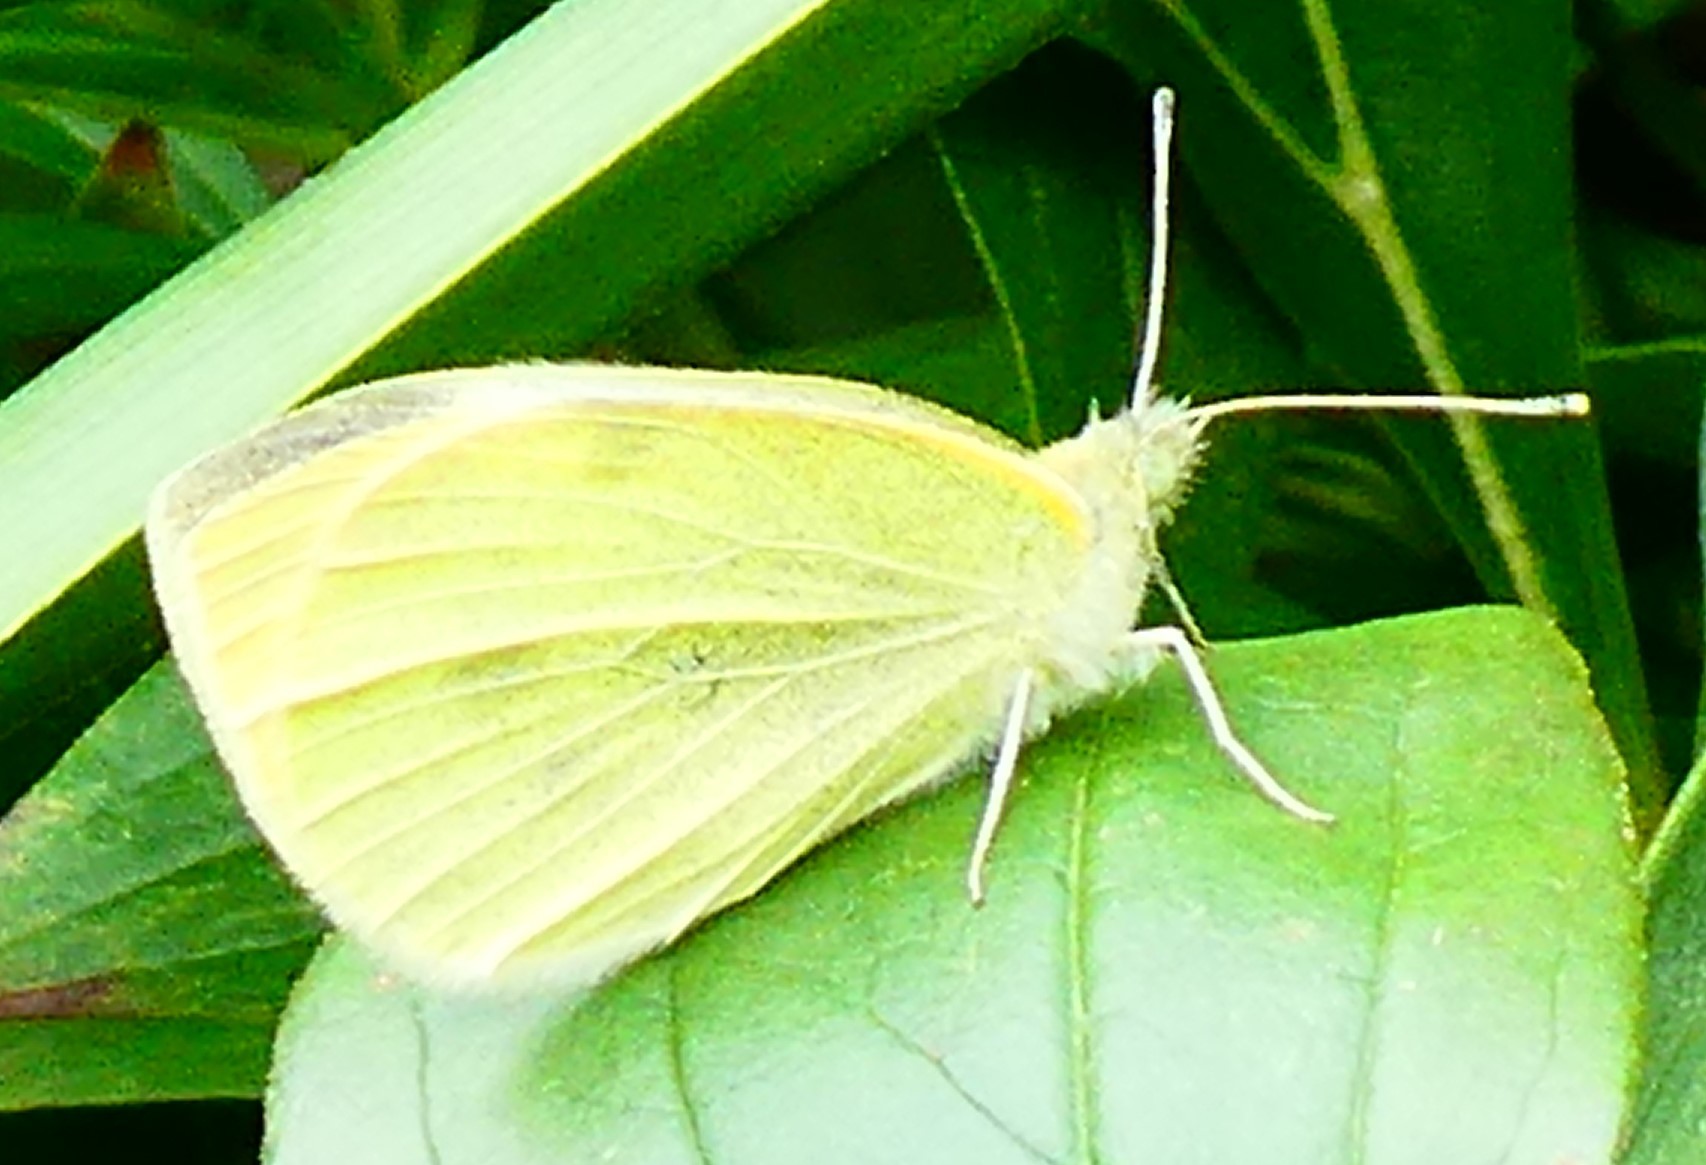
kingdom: Animalia
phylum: Arthropoda
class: Insecta
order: Lepidoptera
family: Pieridae
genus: Pieris
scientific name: Pieris rapae
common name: Small white
